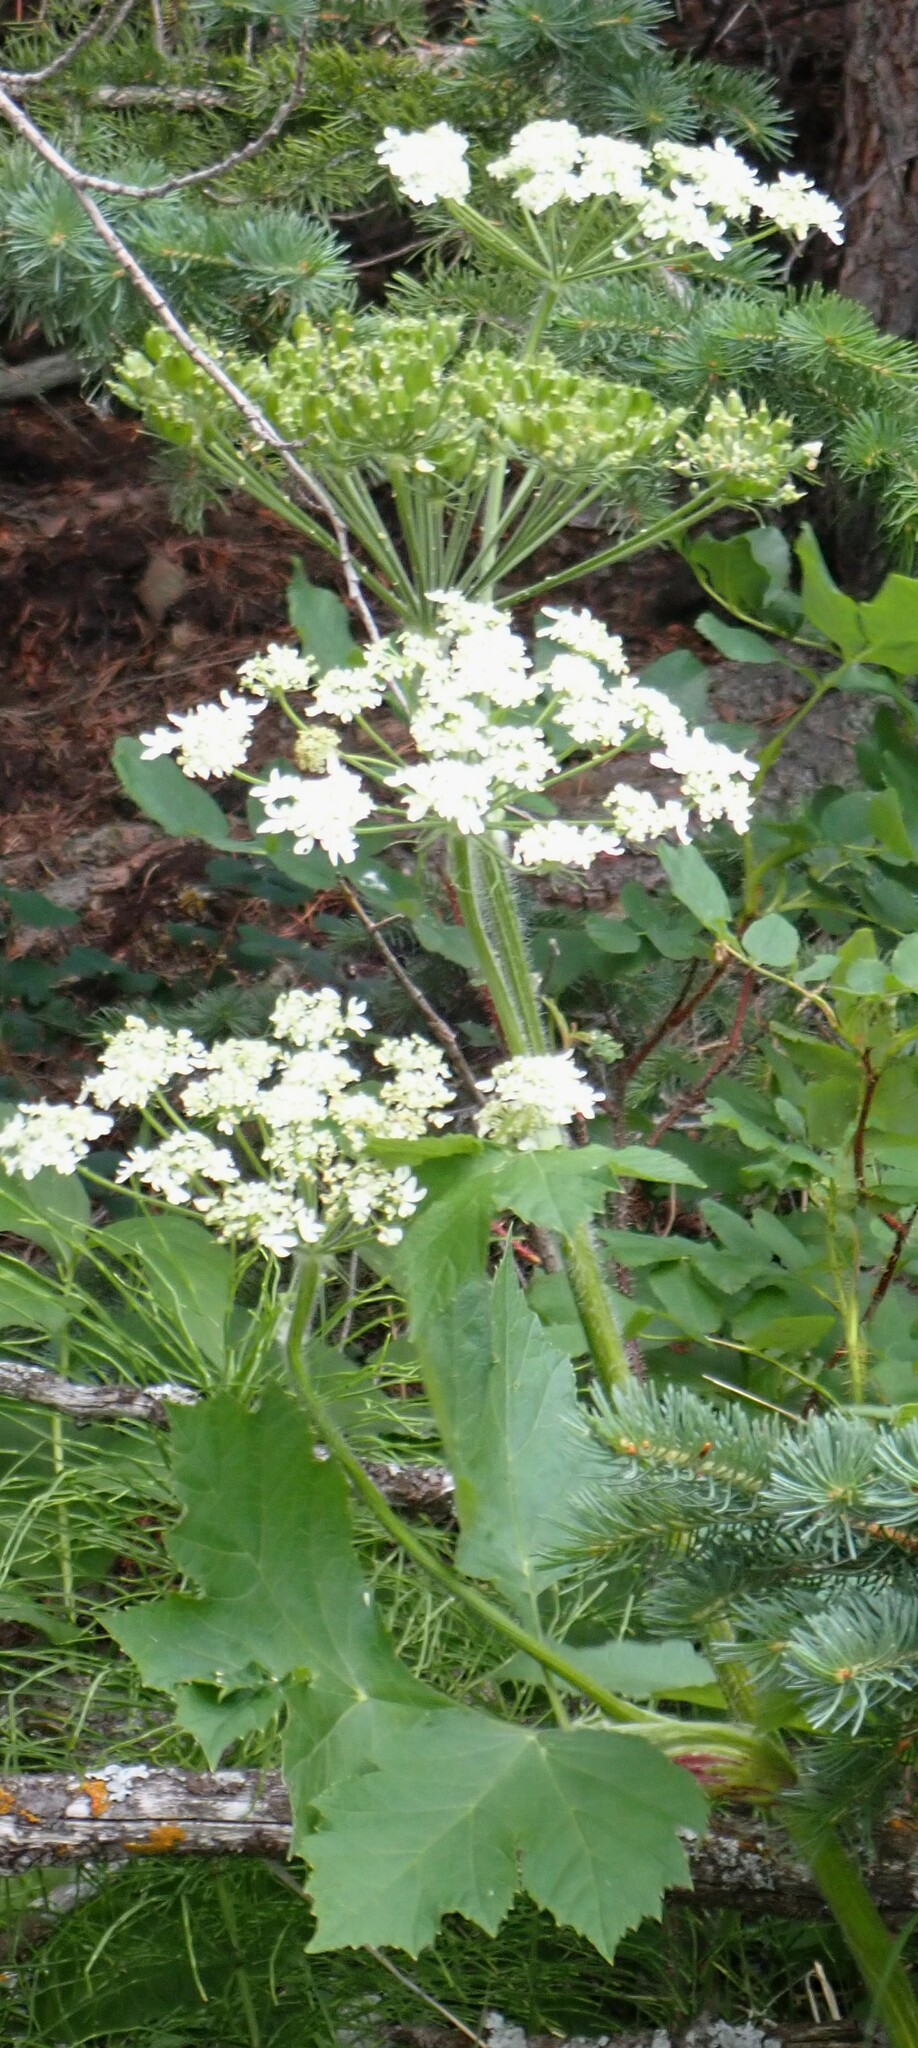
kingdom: Plantae
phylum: Tracheophyta
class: Magnoliopsida
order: Apiales
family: Apiaceae
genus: Heracleum
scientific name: Heracleum maximum
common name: American cow parsnip
